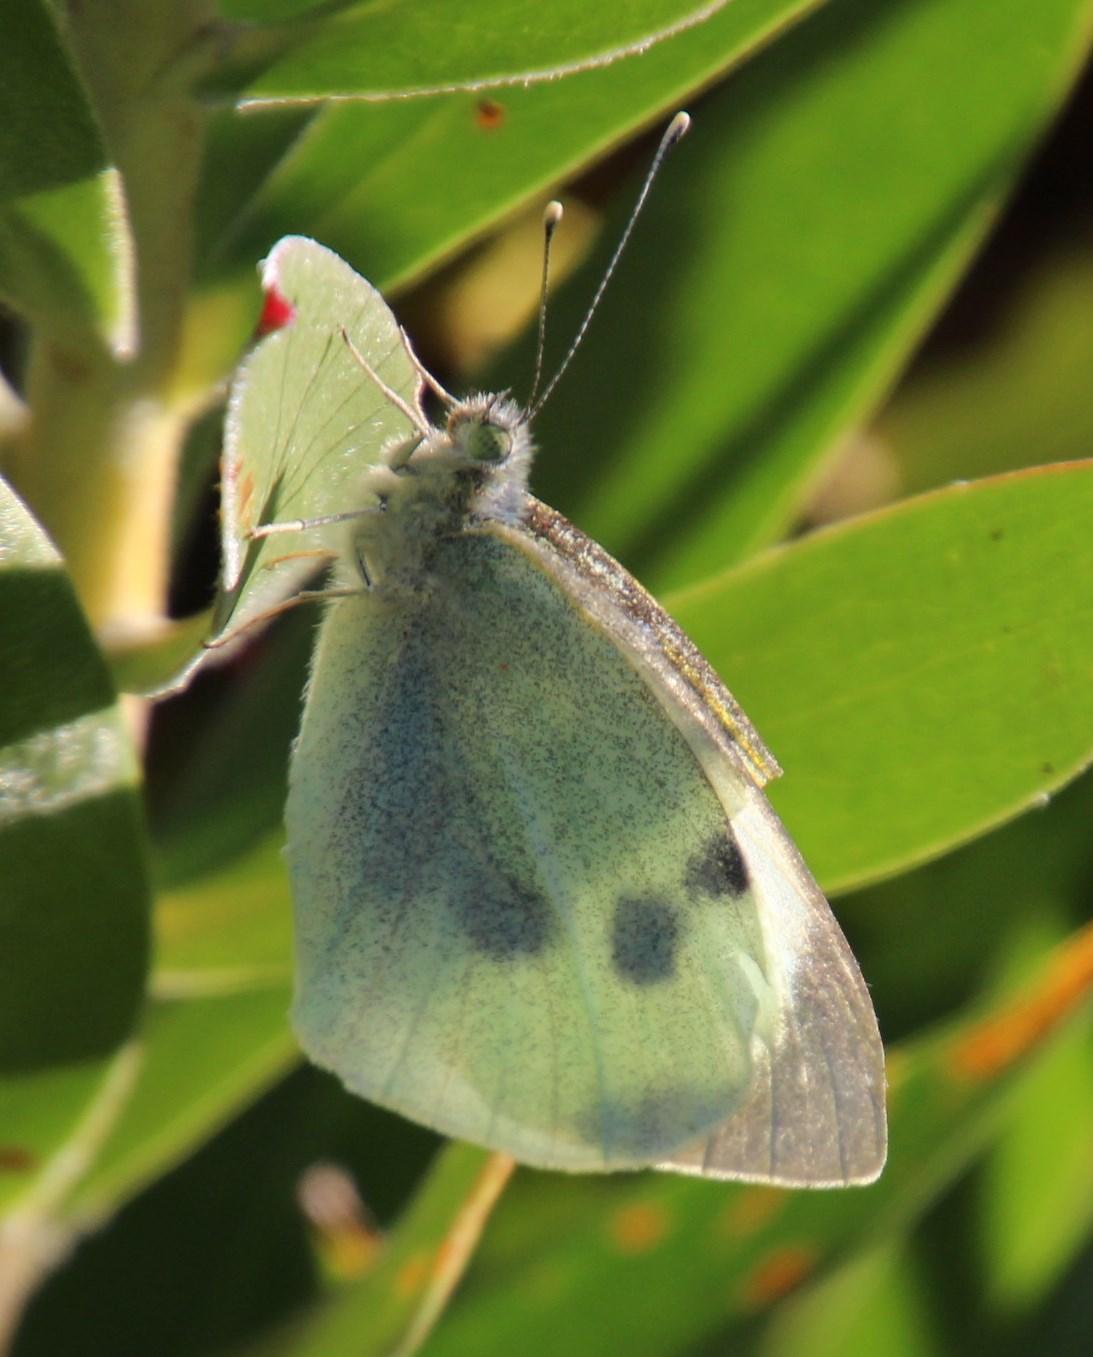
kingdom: Animalia
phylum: Arthropoda
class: Insecta
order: Lepidoptera
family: Pieridae
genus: Pieris
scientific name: Pieris brassicae
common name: Large white
